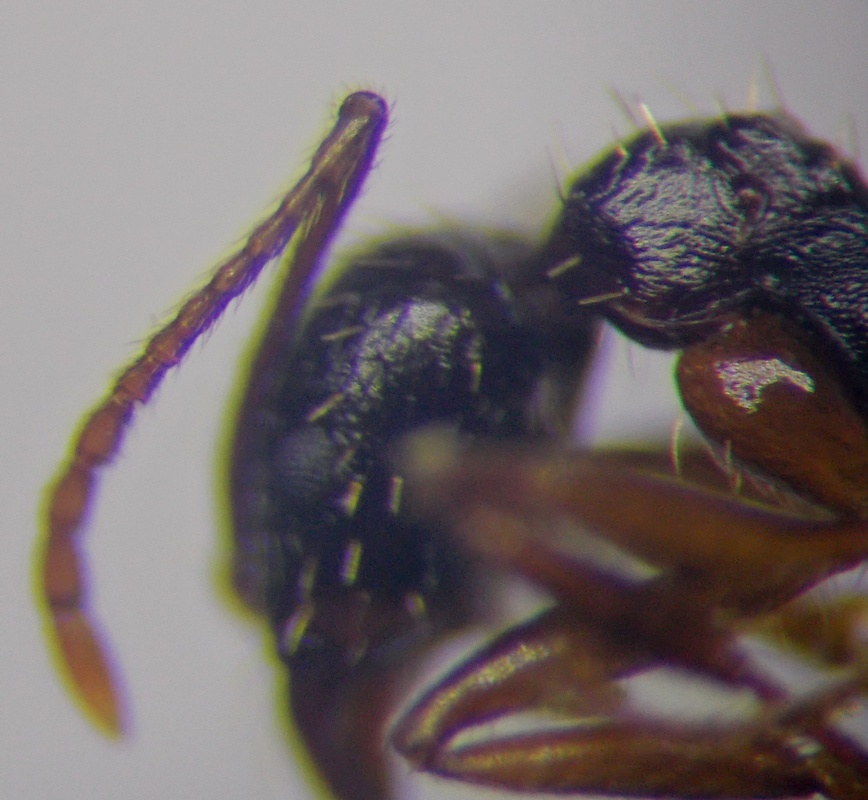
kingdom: Animalia
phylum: Arthropoda
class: Insecta
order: Hymenoptera
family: Formicidae
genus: Aphaenogaster
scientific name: Aphaenogaster
